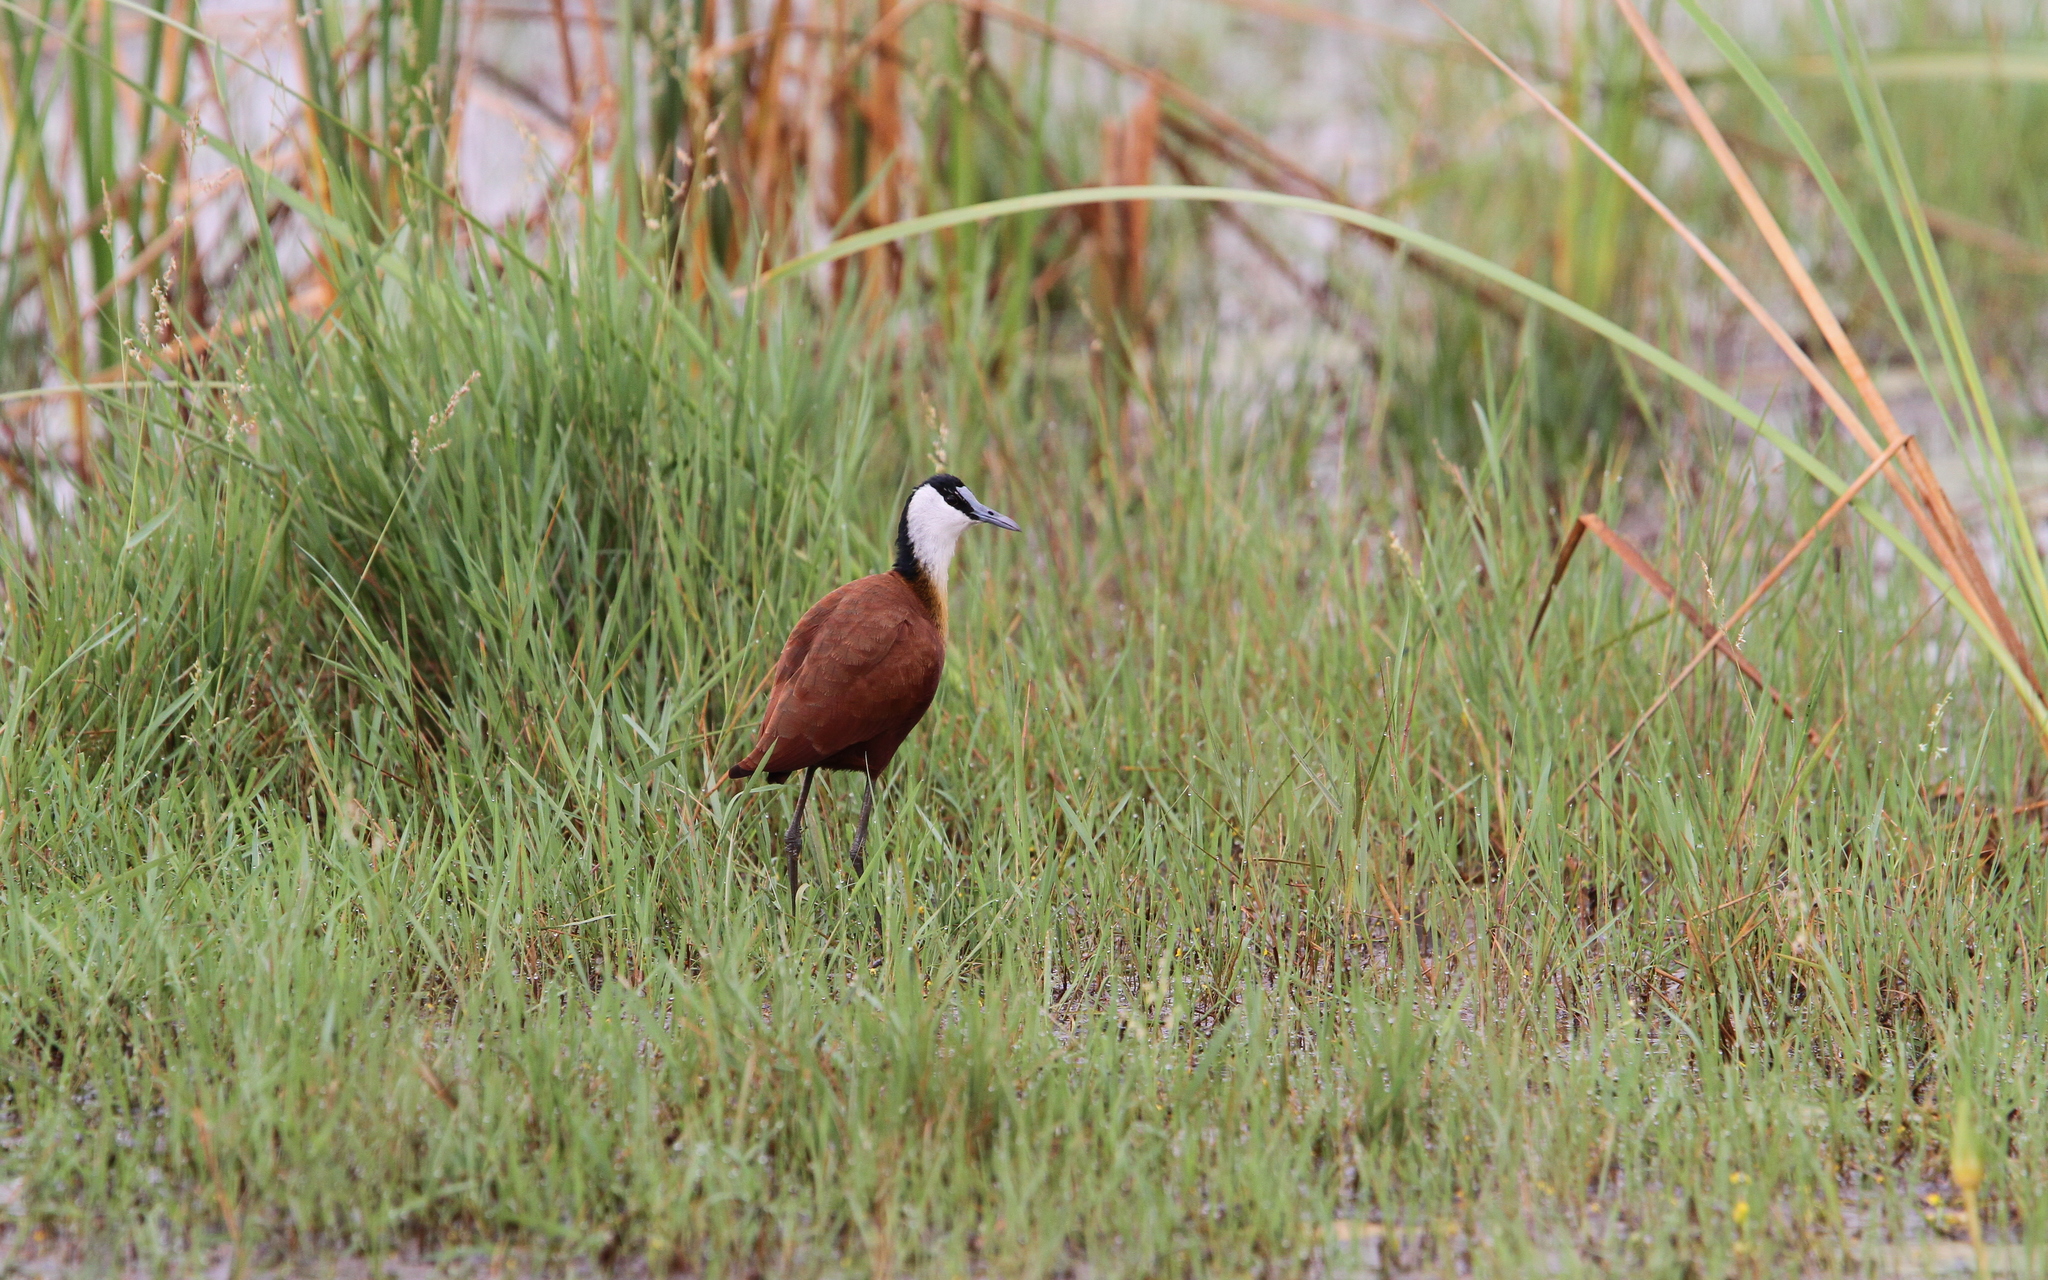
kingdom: Animalia
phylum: Chordata
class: Aves
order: Charadriiformes
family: Jacanidae
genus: Actophilornis
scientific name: Actophilornis africanus
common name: African jacana
